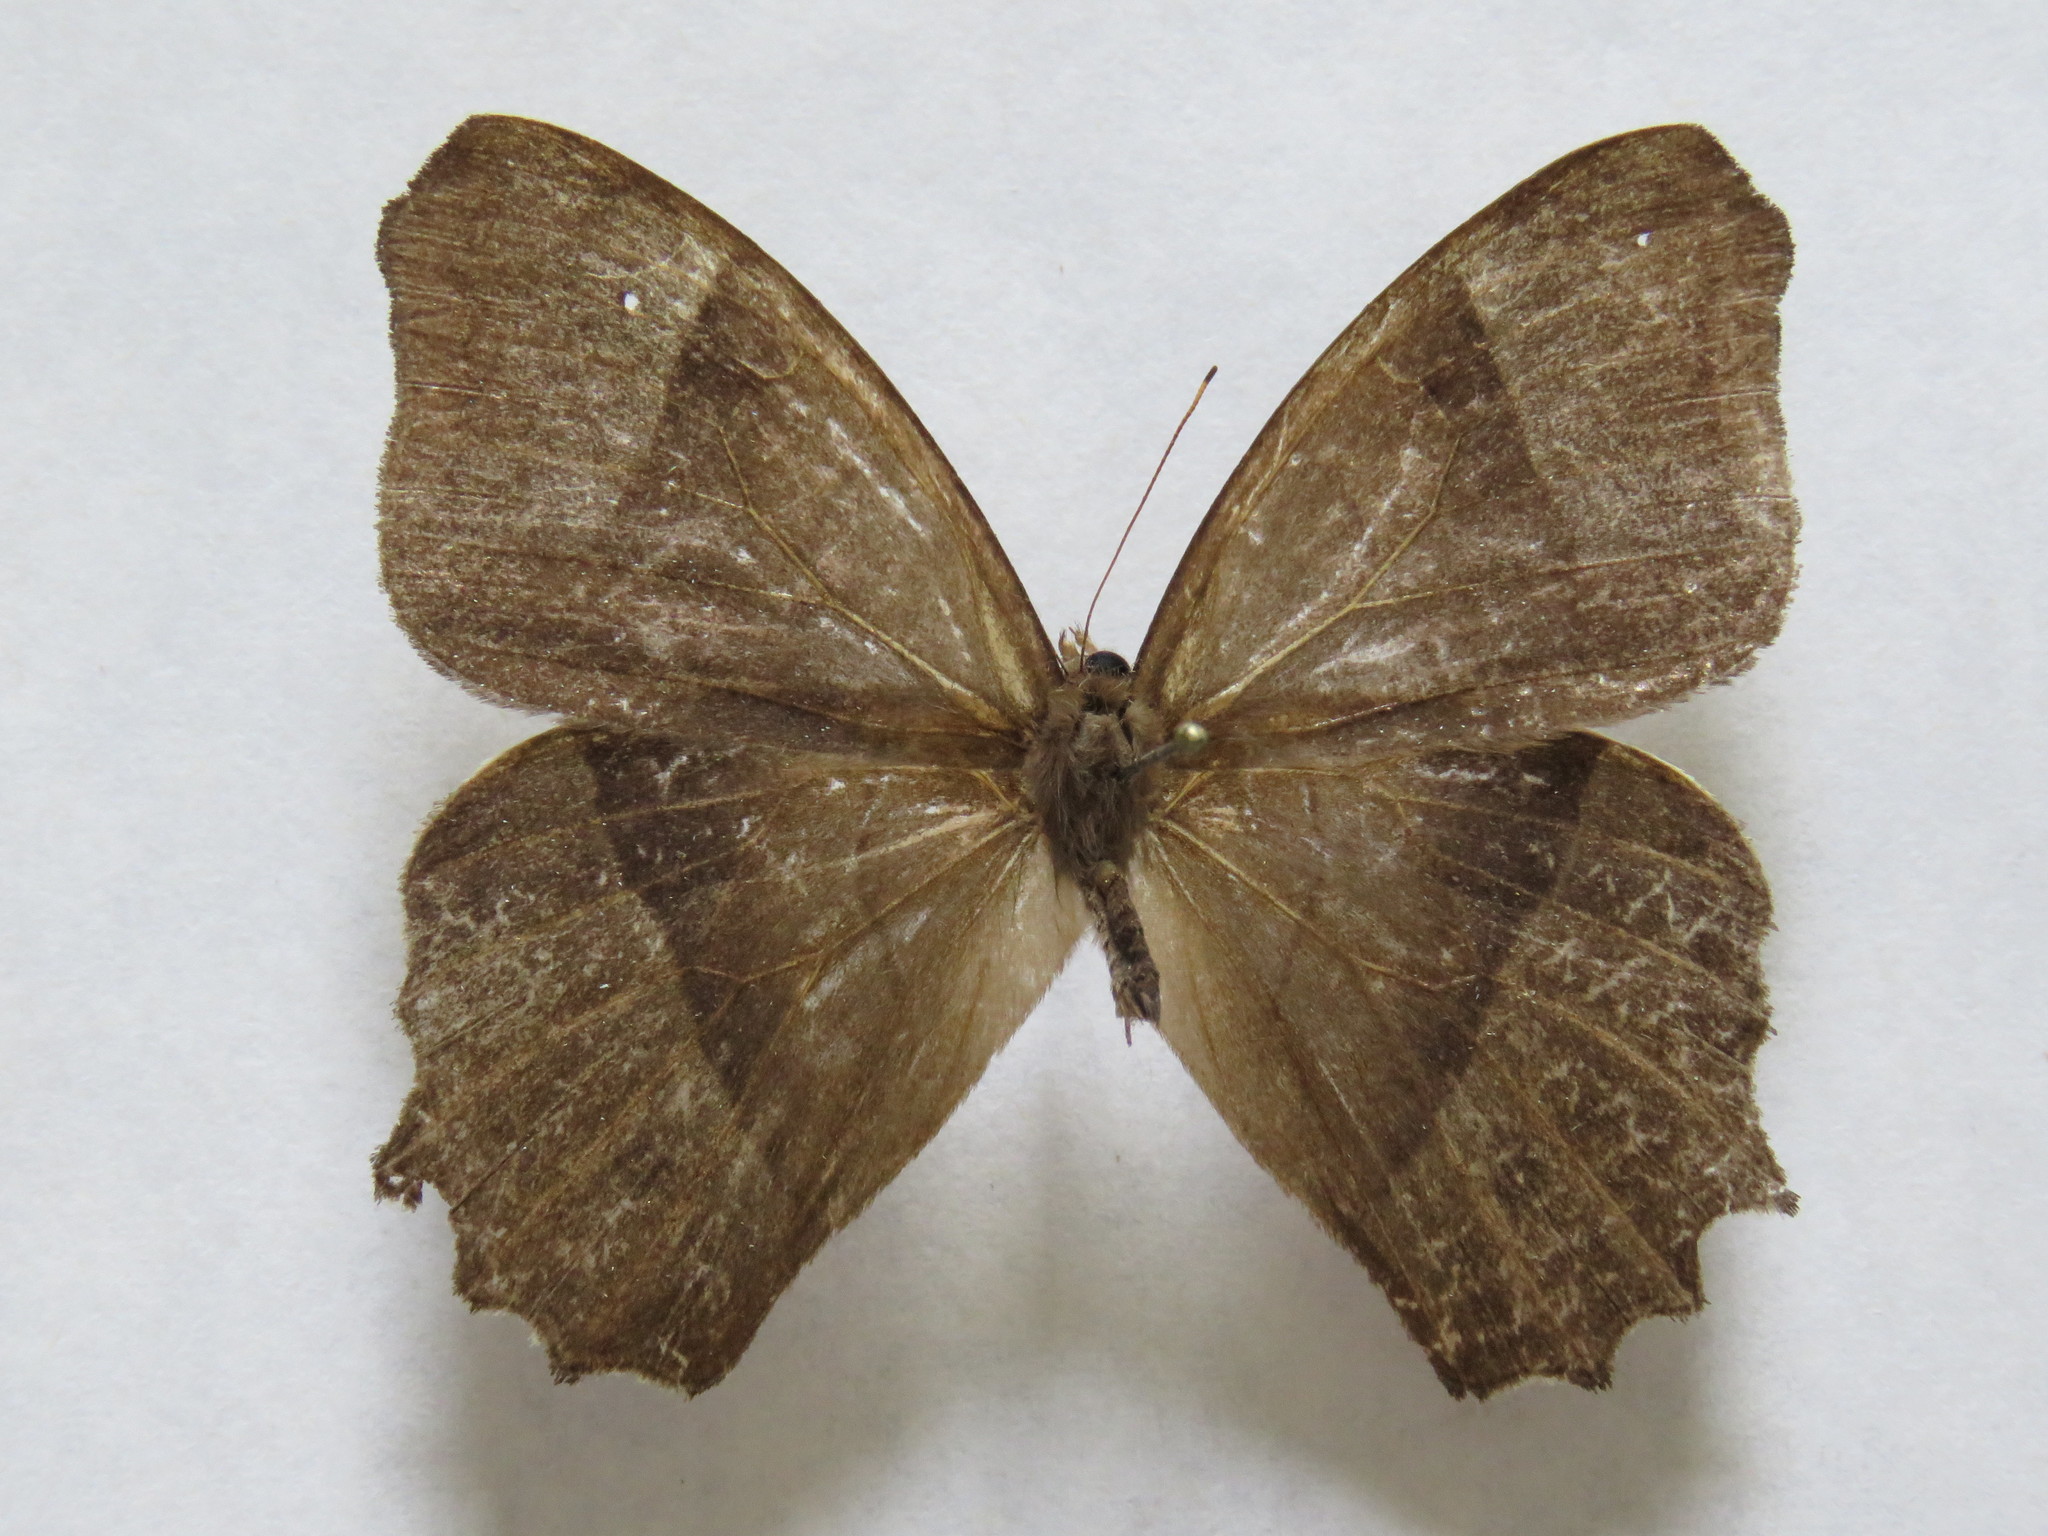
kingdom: Animalia
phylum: Arthropoda
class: Insecta
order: Lepidoptera
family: Nymphalidae
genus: Taygetis
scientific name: Taygetis andromeda
